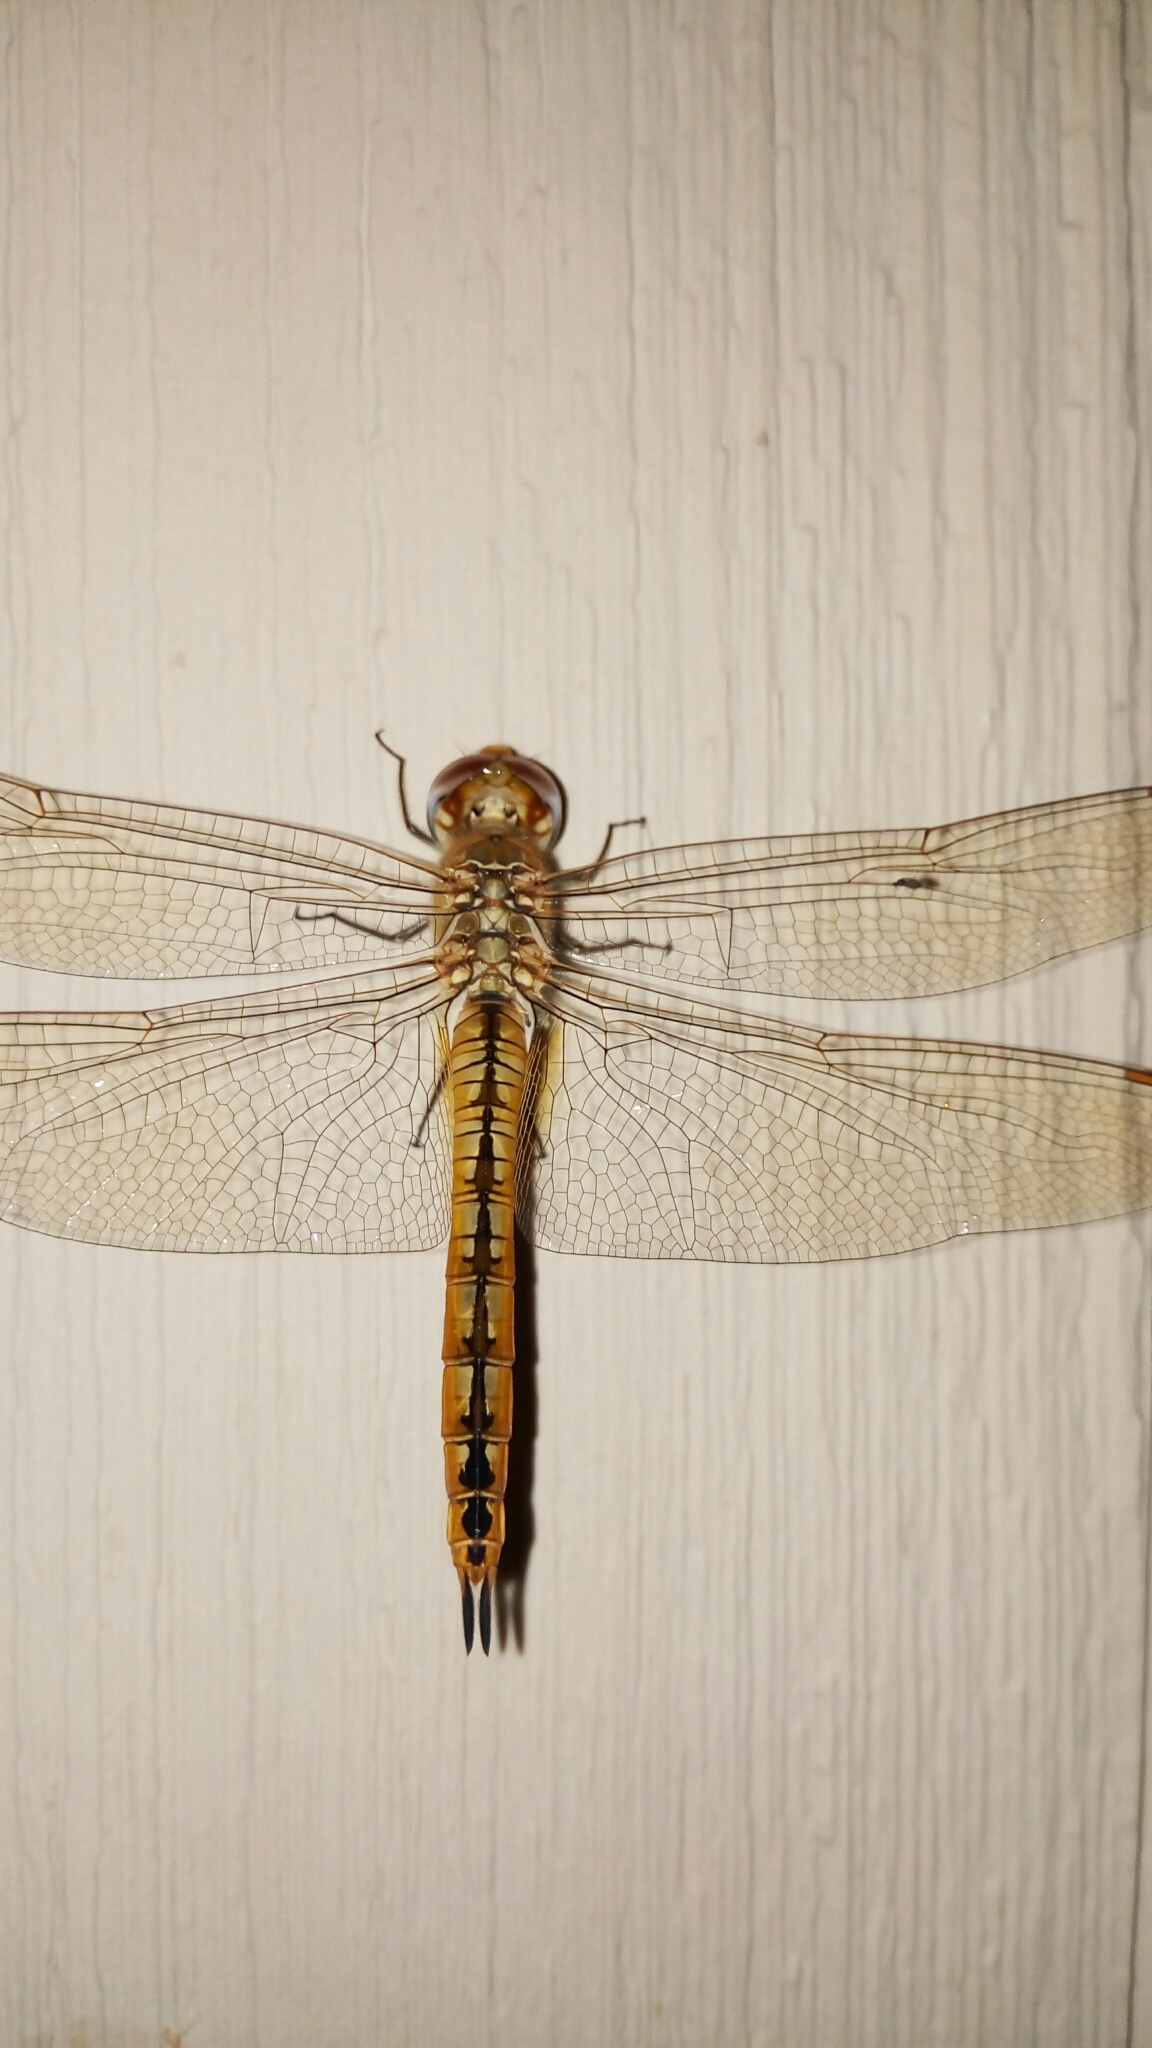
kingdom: Animalia
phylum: Arthropoda
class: Insecta
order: Odonata
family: Libellulidae
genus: Pantala
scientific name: Pantala flavescens
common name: Wandering glider
